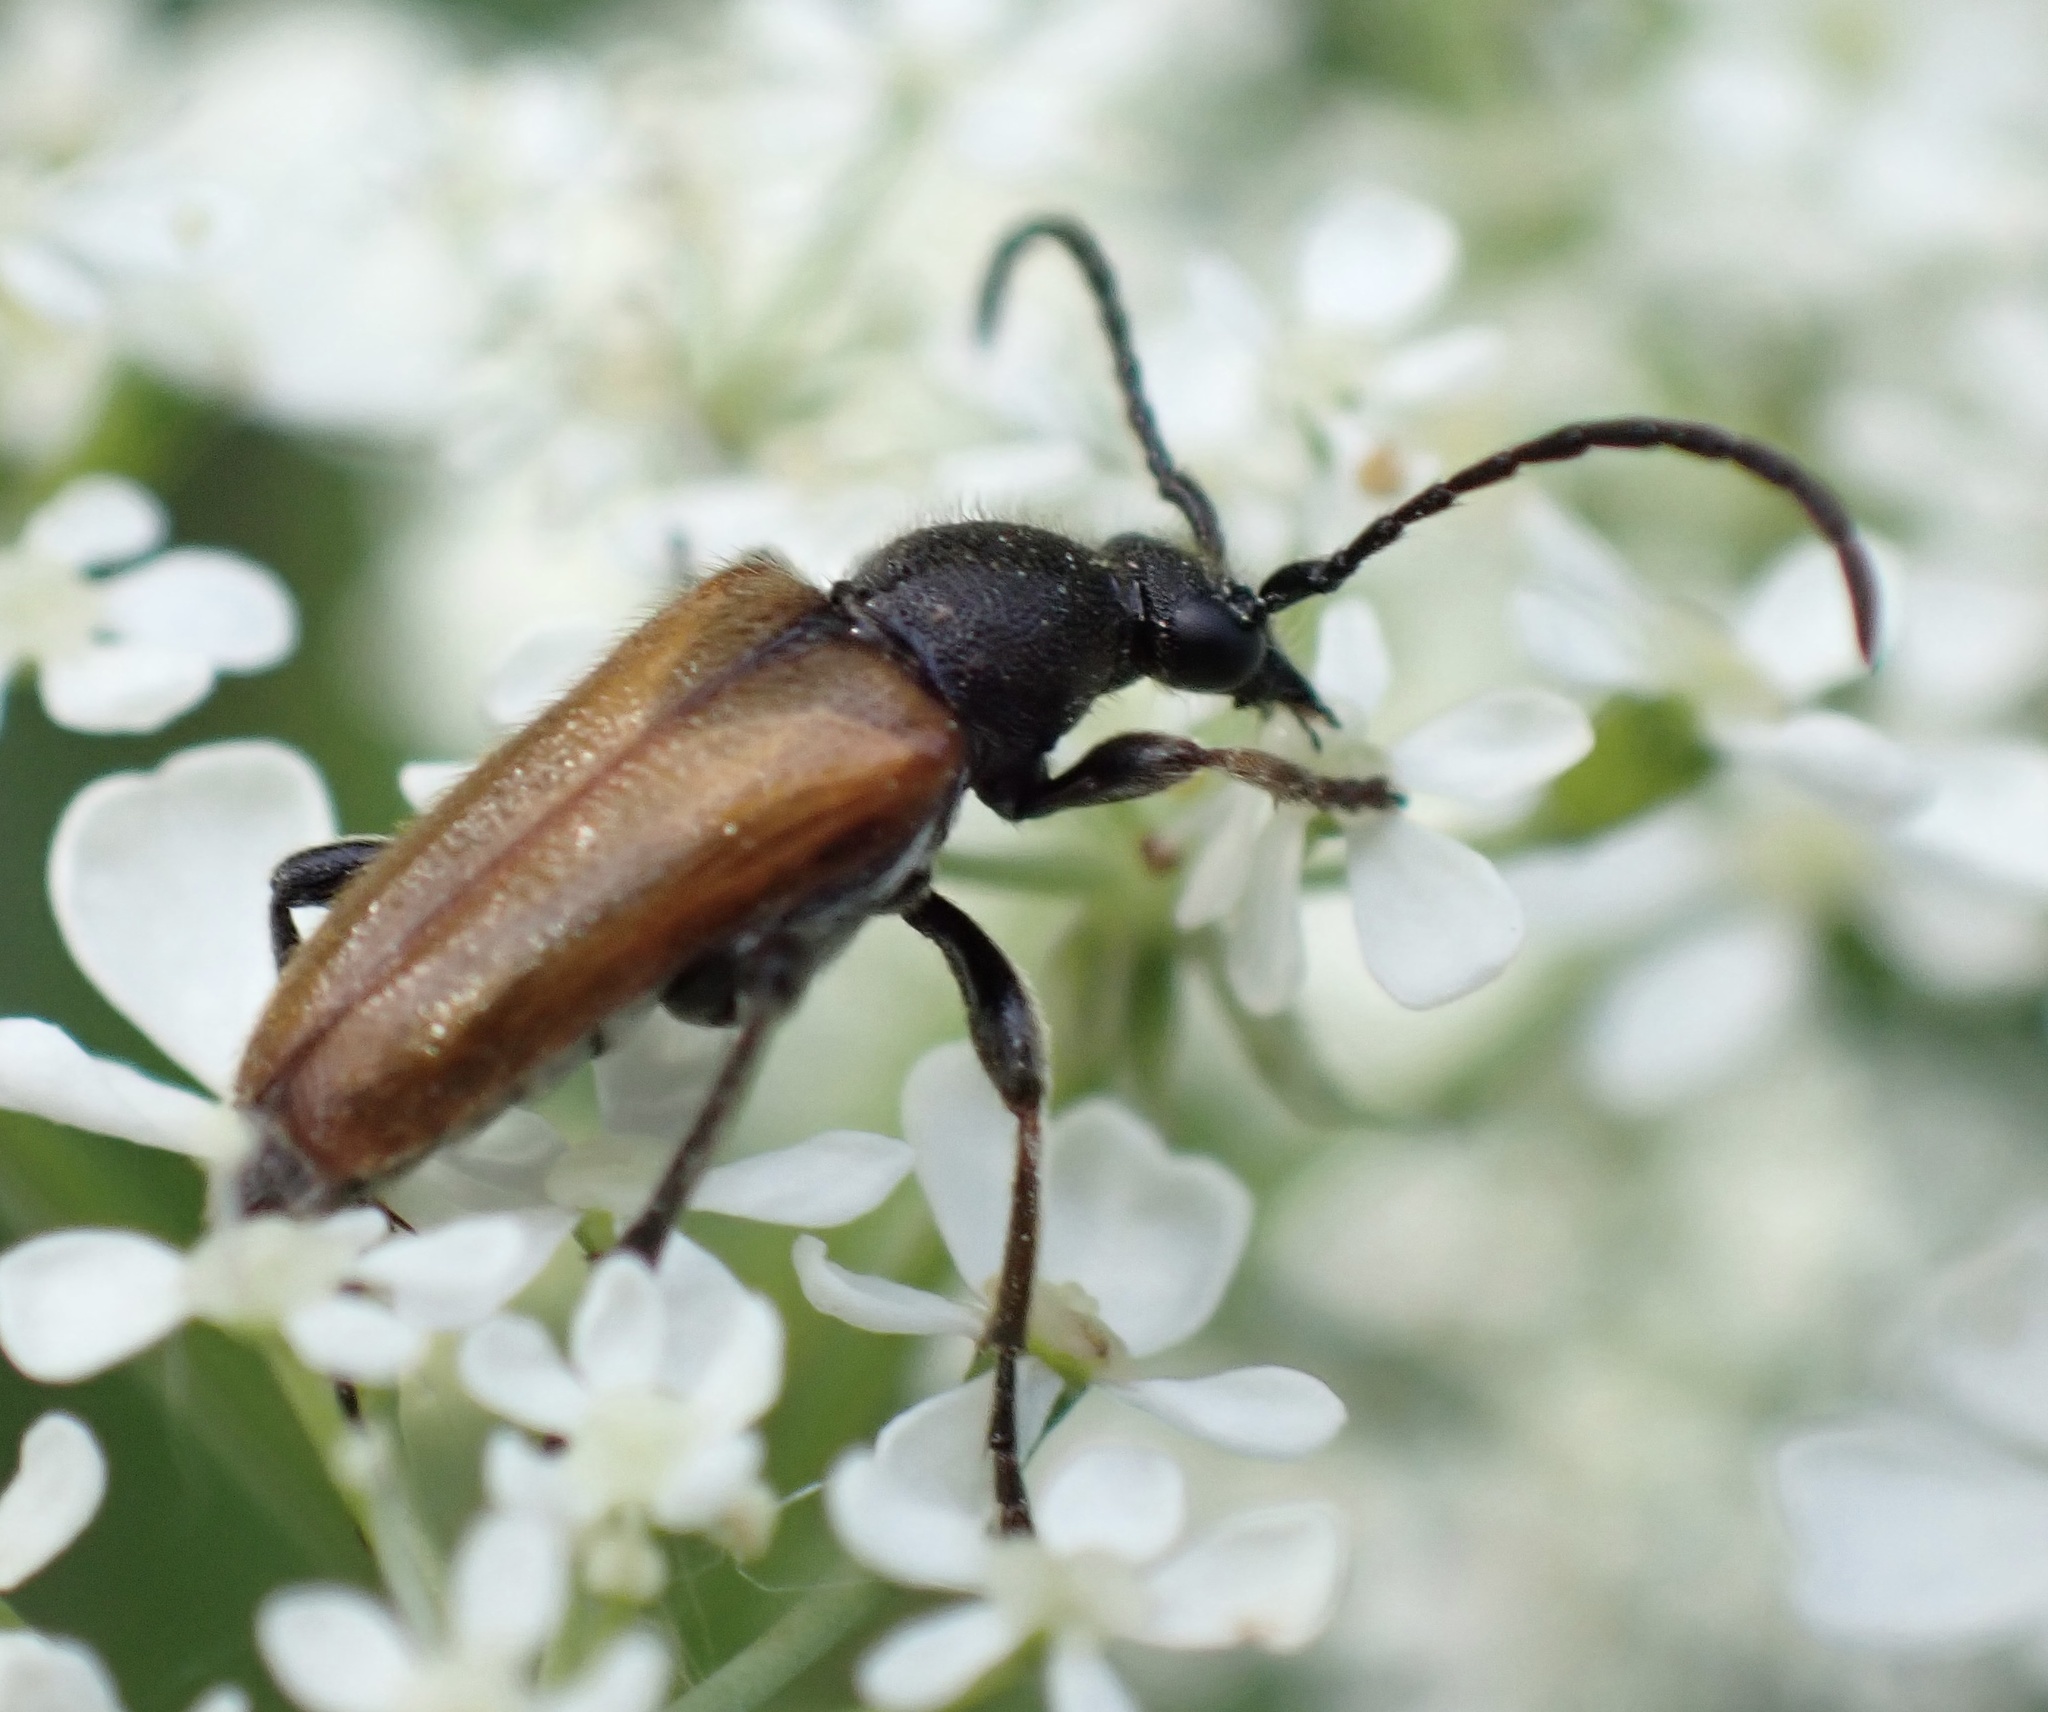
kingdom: Animalia
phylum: Arthropoda
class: Insecta
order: Coleoptera
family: Cerambycidae
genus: Pseudovadonia
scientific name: Pseudovadonia livida
